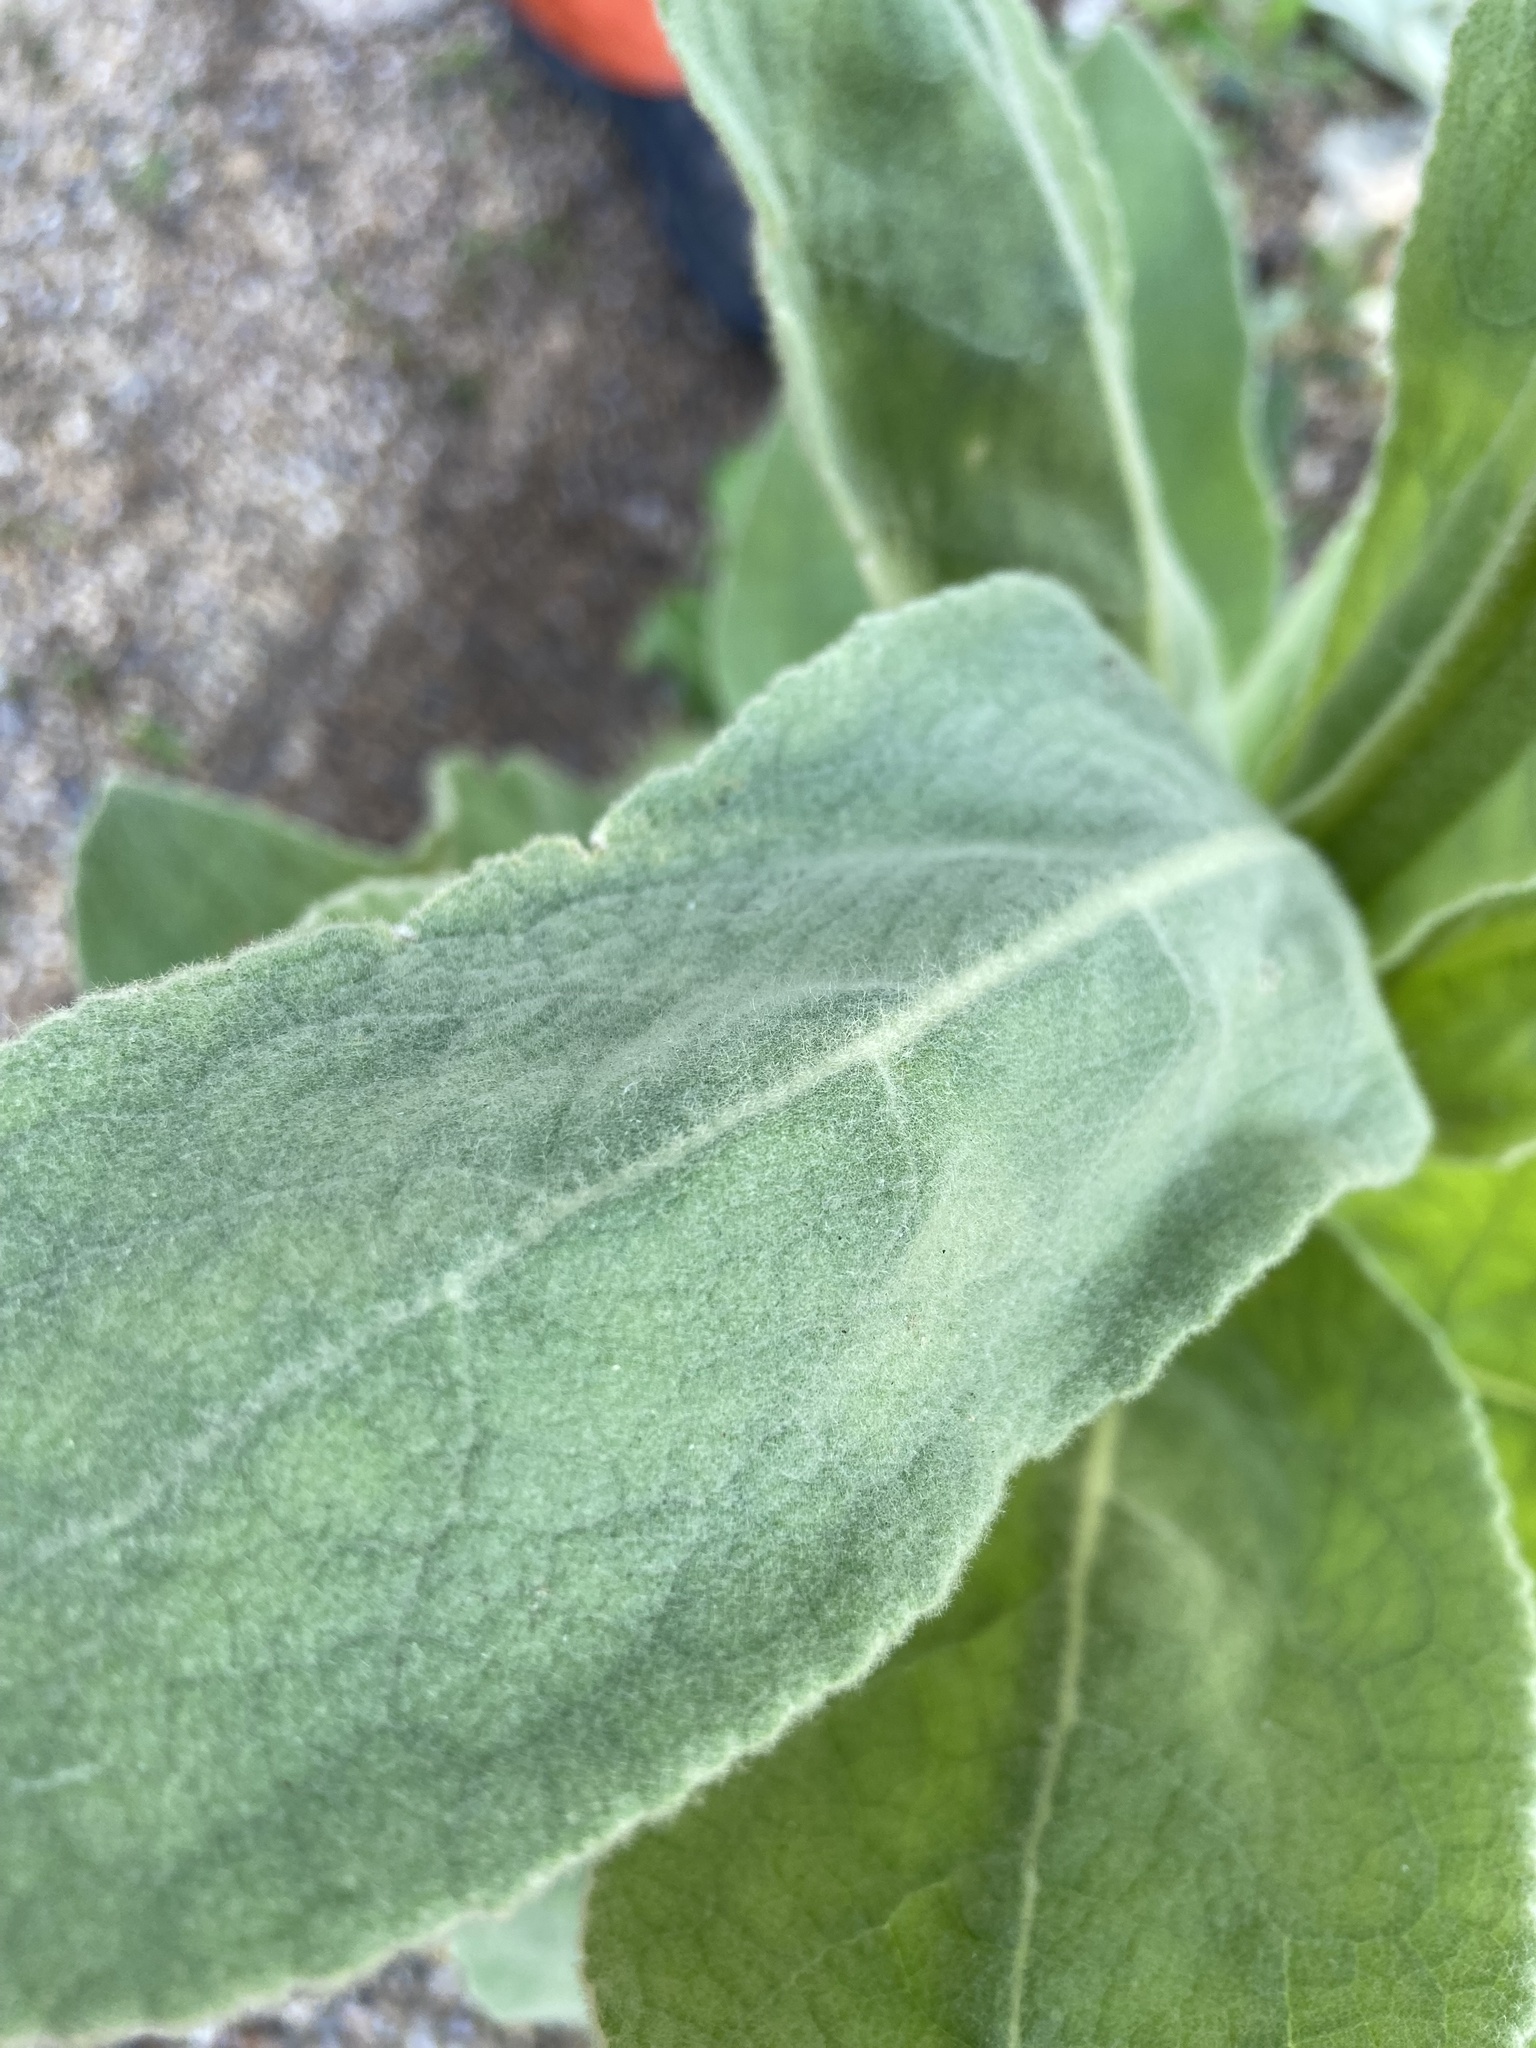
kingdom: Plantae
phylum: Tracheophyta
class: Magnoliopsida
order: Lamiales
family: Scrophulariaceae
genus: Verbascum
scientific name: Verbascum thapsus
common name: Common mullein
